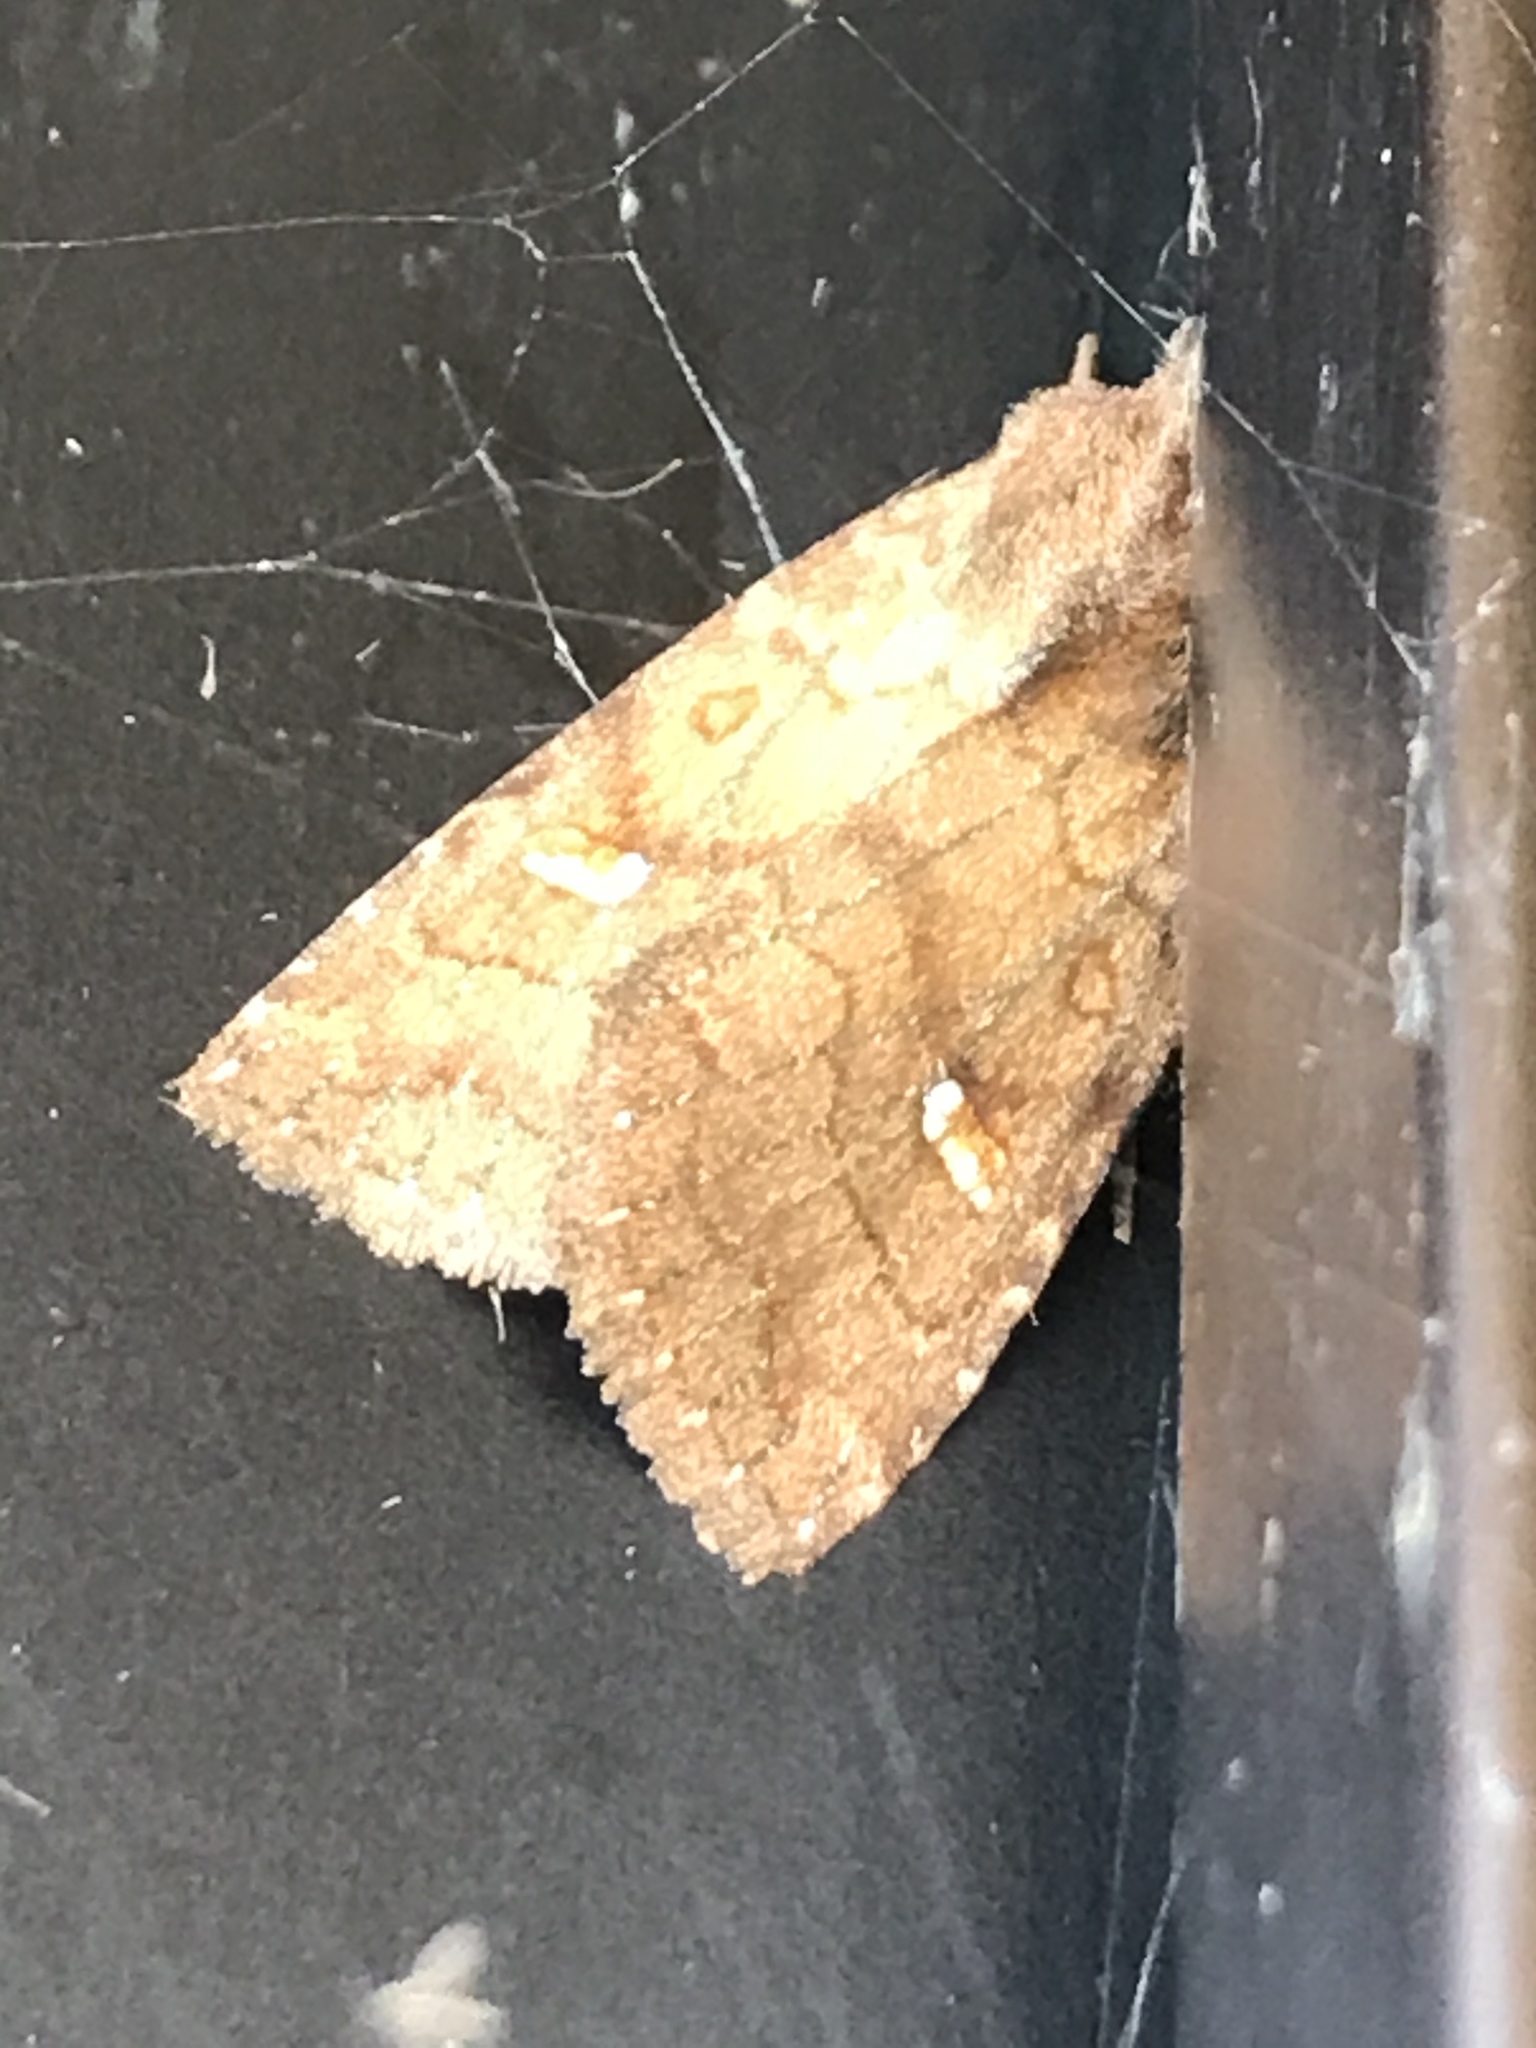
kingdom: Animalia
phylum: Arthropoda
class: Insecta
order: Lepidoptera
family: Noctuidae
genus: Amphipoea
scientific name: Amphipoea americana
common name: American ear moth
